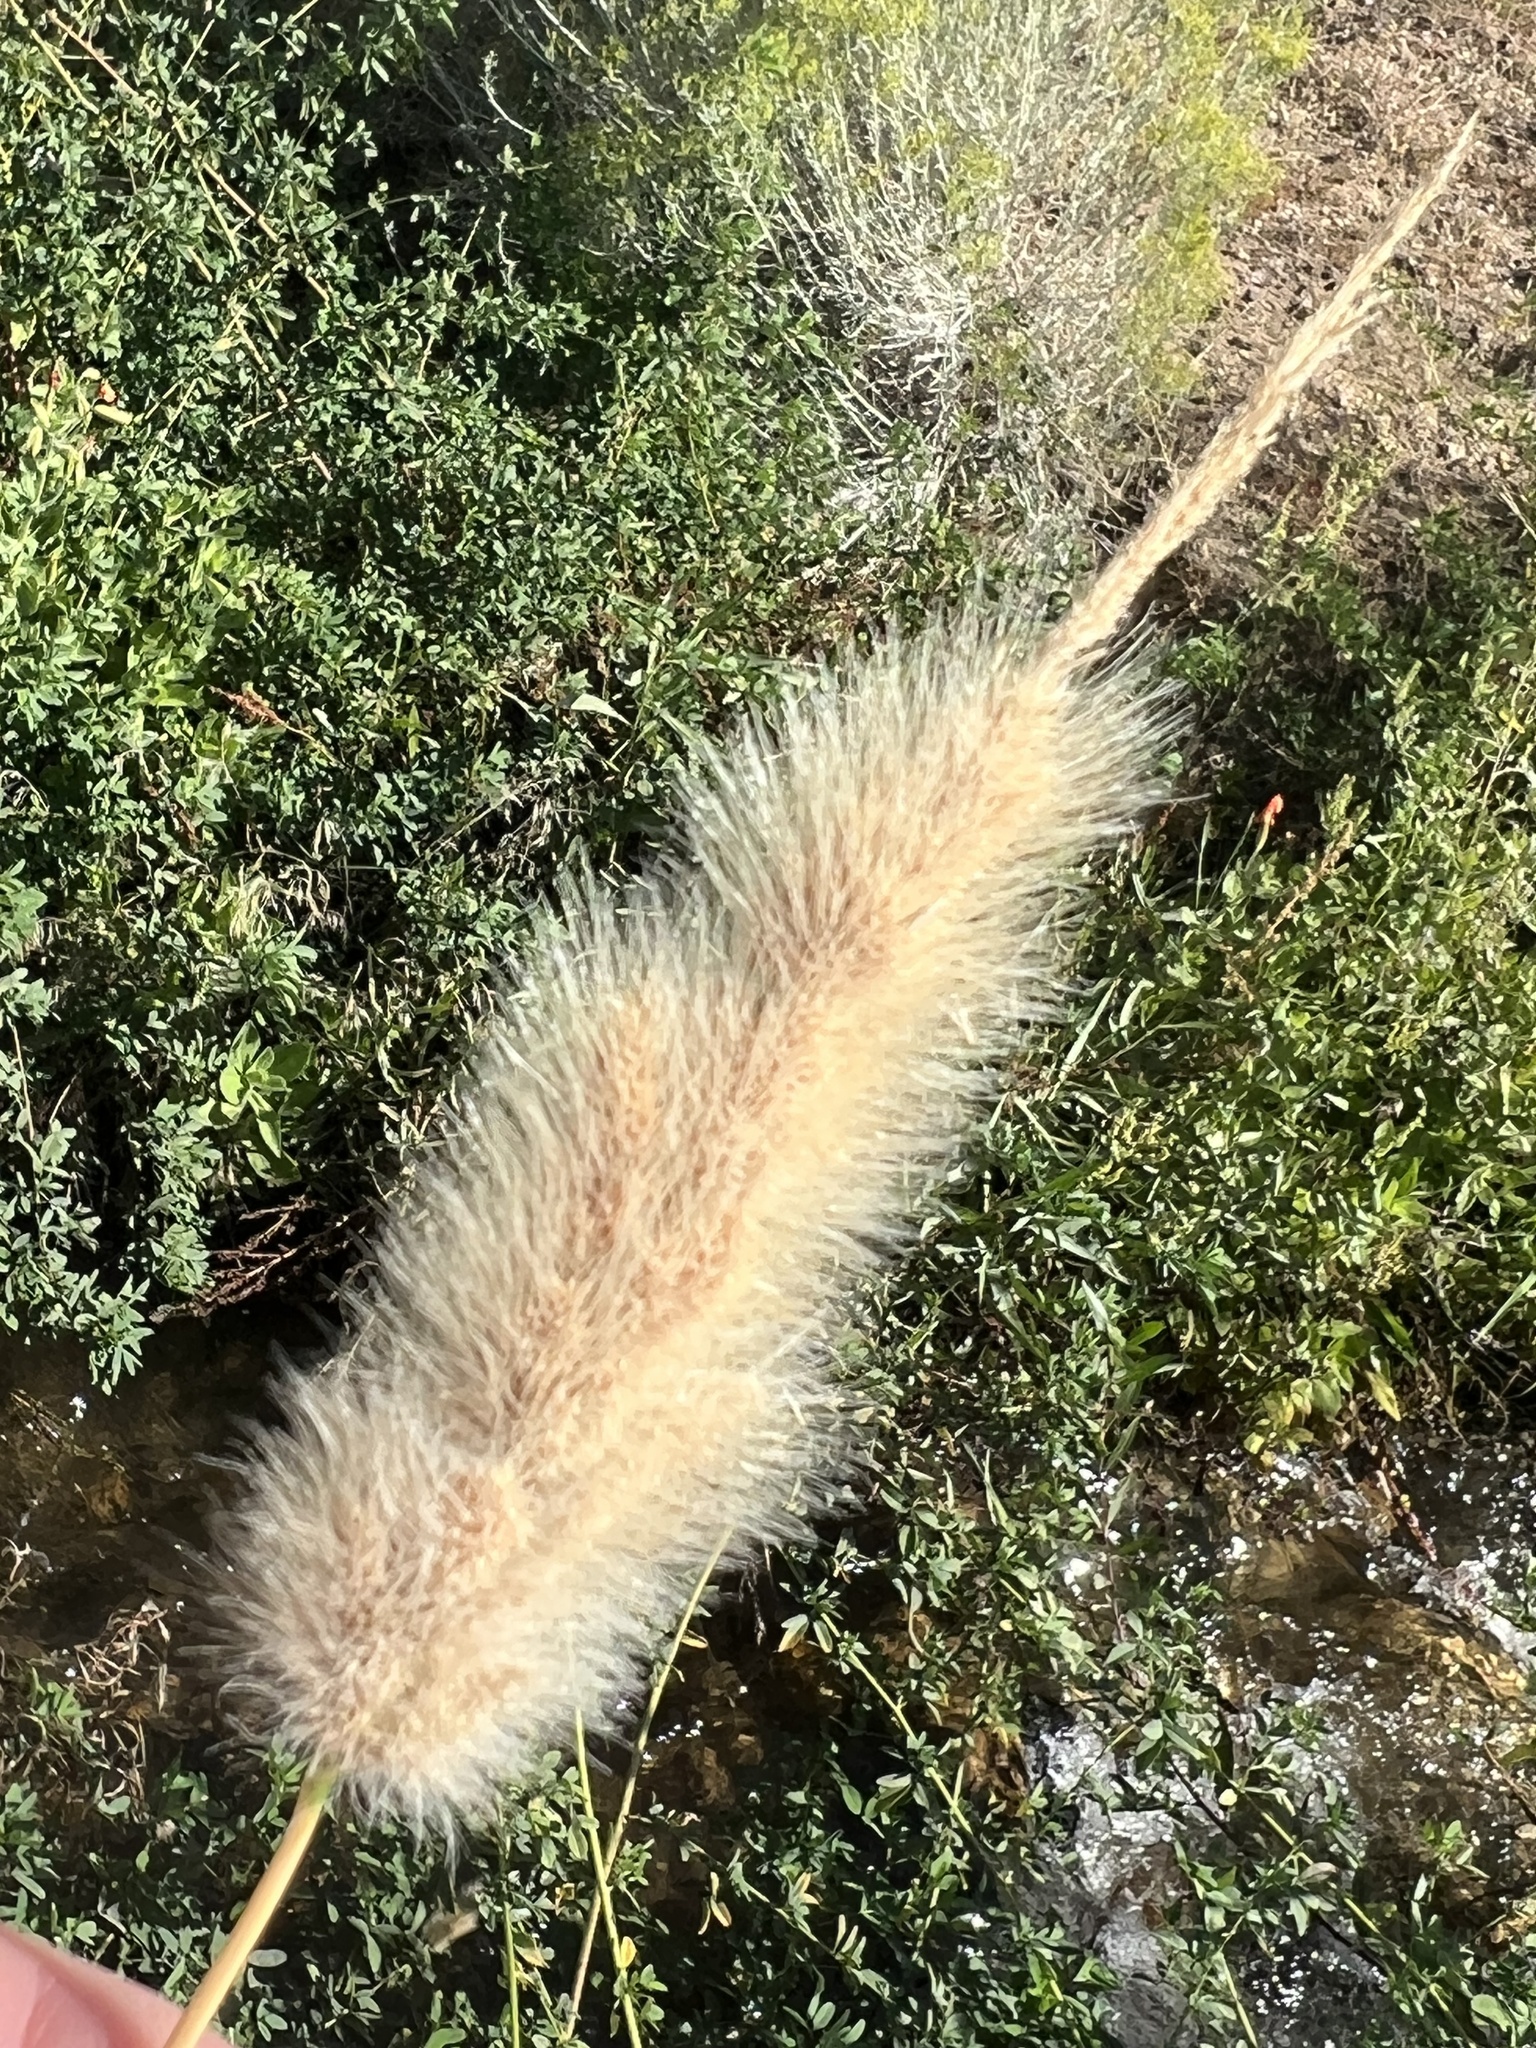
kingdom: Plantae
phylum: Tracheophyta
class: Liliopsida
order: Poales
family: Poaceae
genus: Polypogon
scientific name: Polypogon monspeliensis
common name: Annual rabbitsfoot grass
